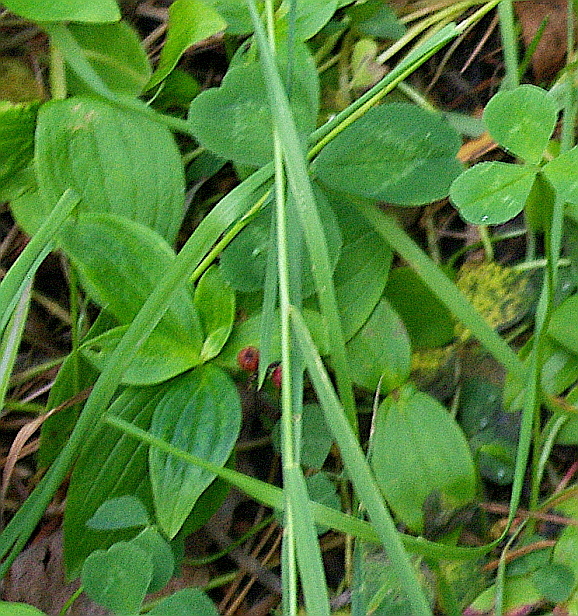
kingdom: Plantae
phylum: Tracheophyta
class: Magnoliopsida
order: Cornales
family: Cornaceae
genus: Cornus
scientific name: Cornus suecica
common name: Dwarf cornel
